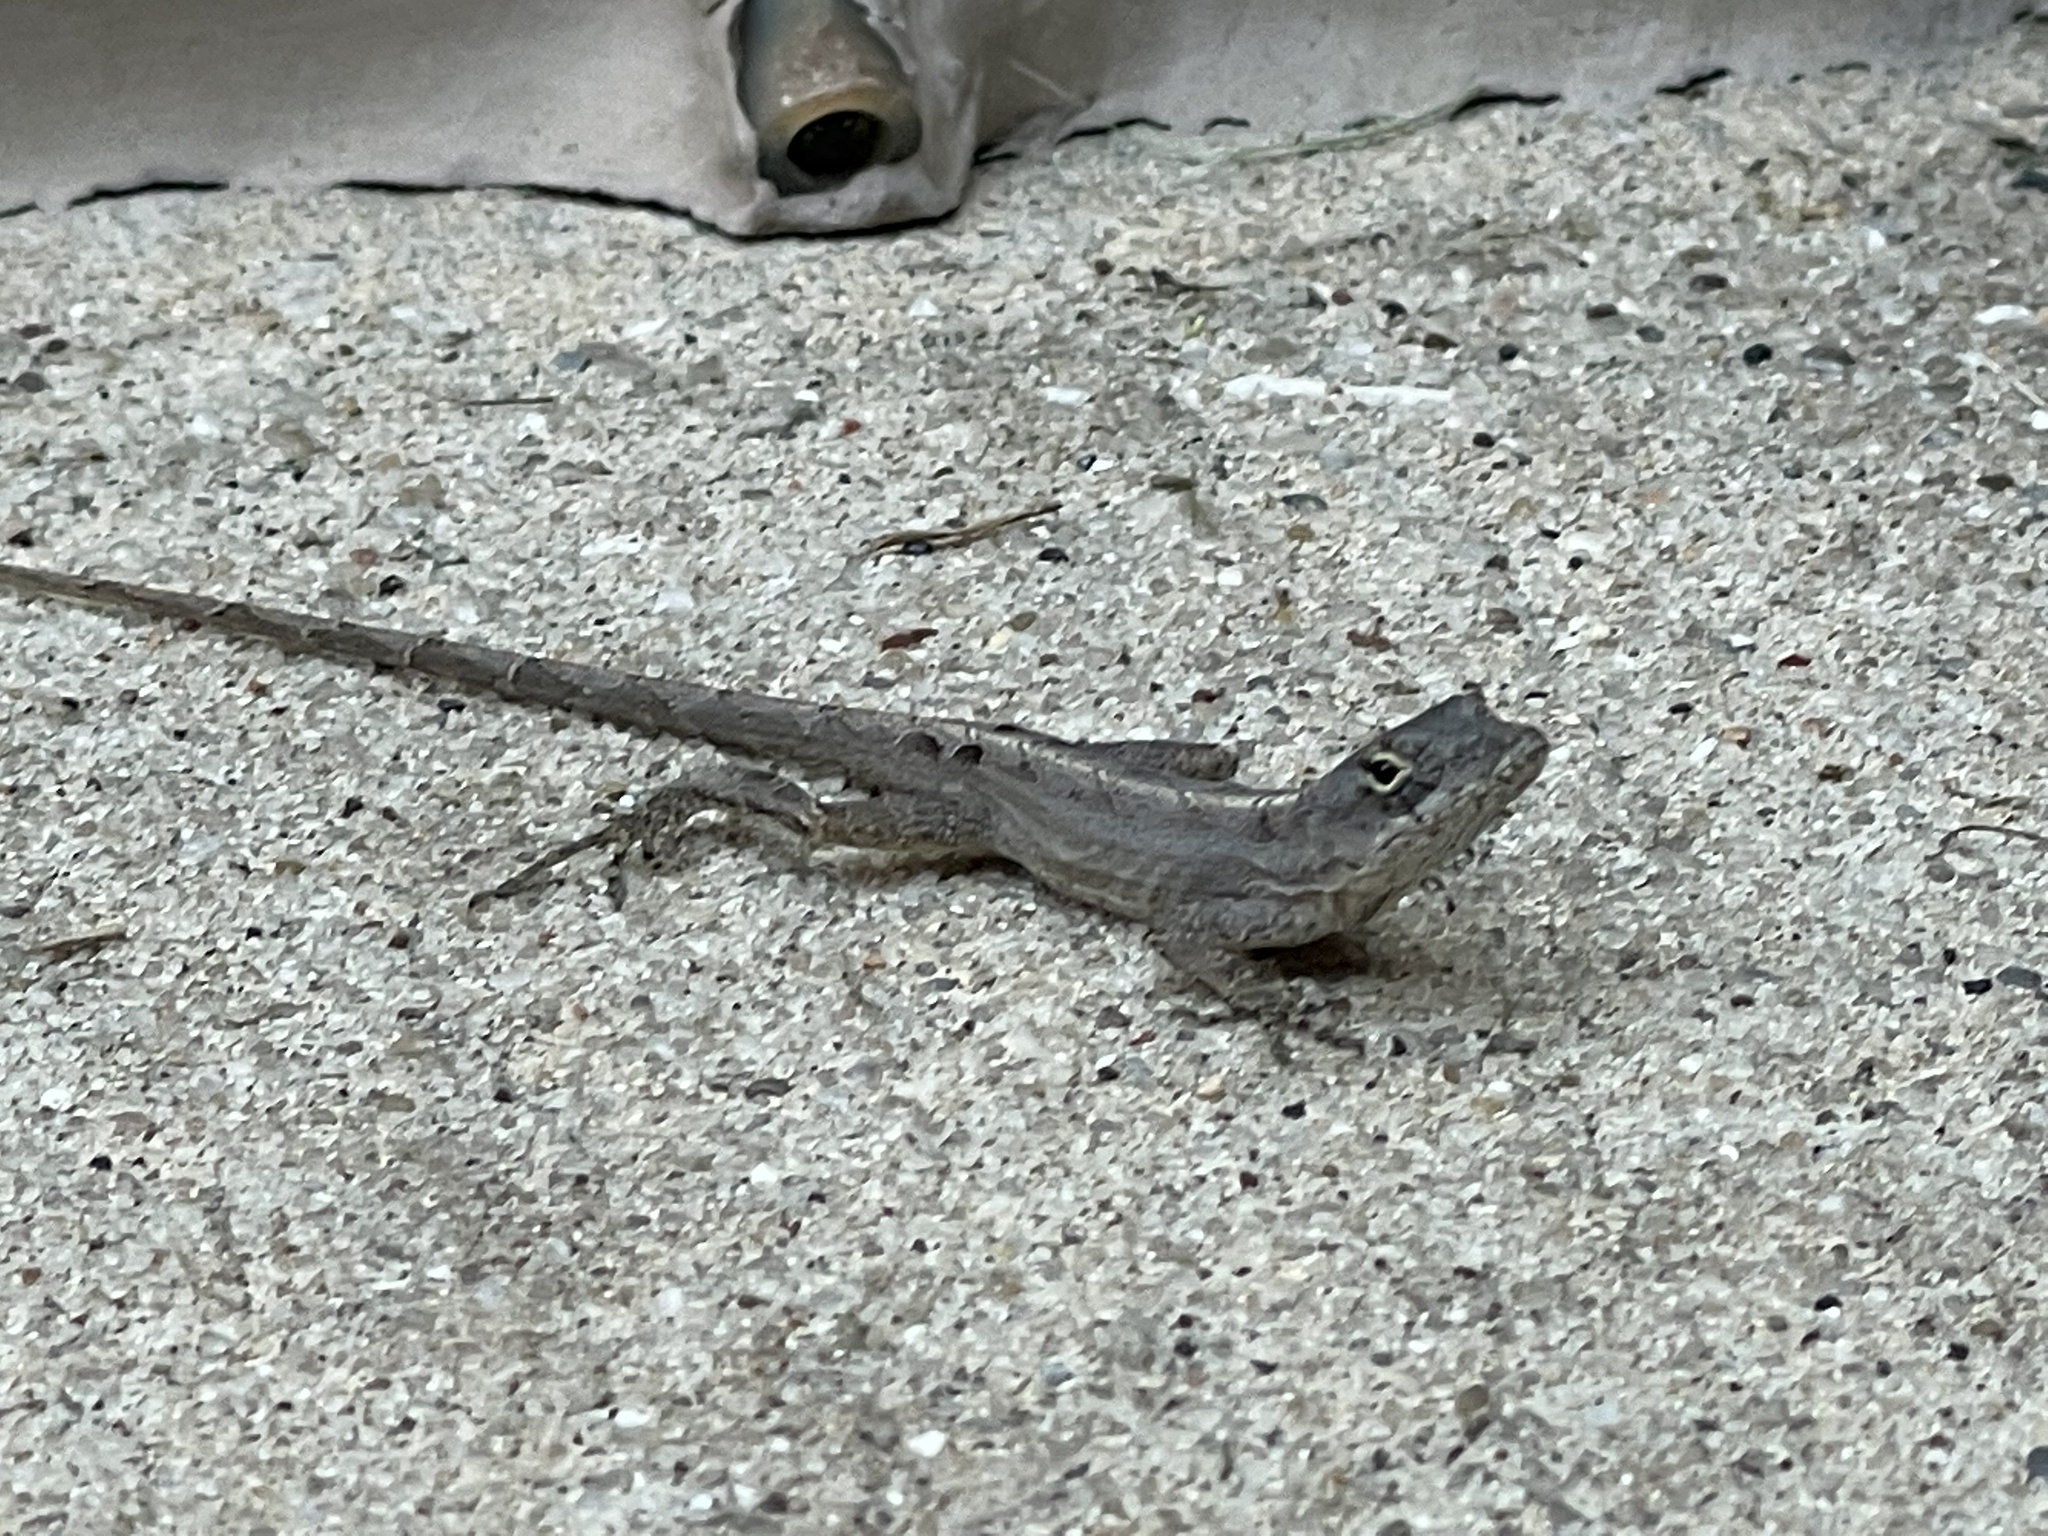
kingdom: Animalia
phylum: Chordata
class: Squamata
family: Dactyloidae
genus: Anolis
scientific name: Anolis sagrei
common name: Brown anole
